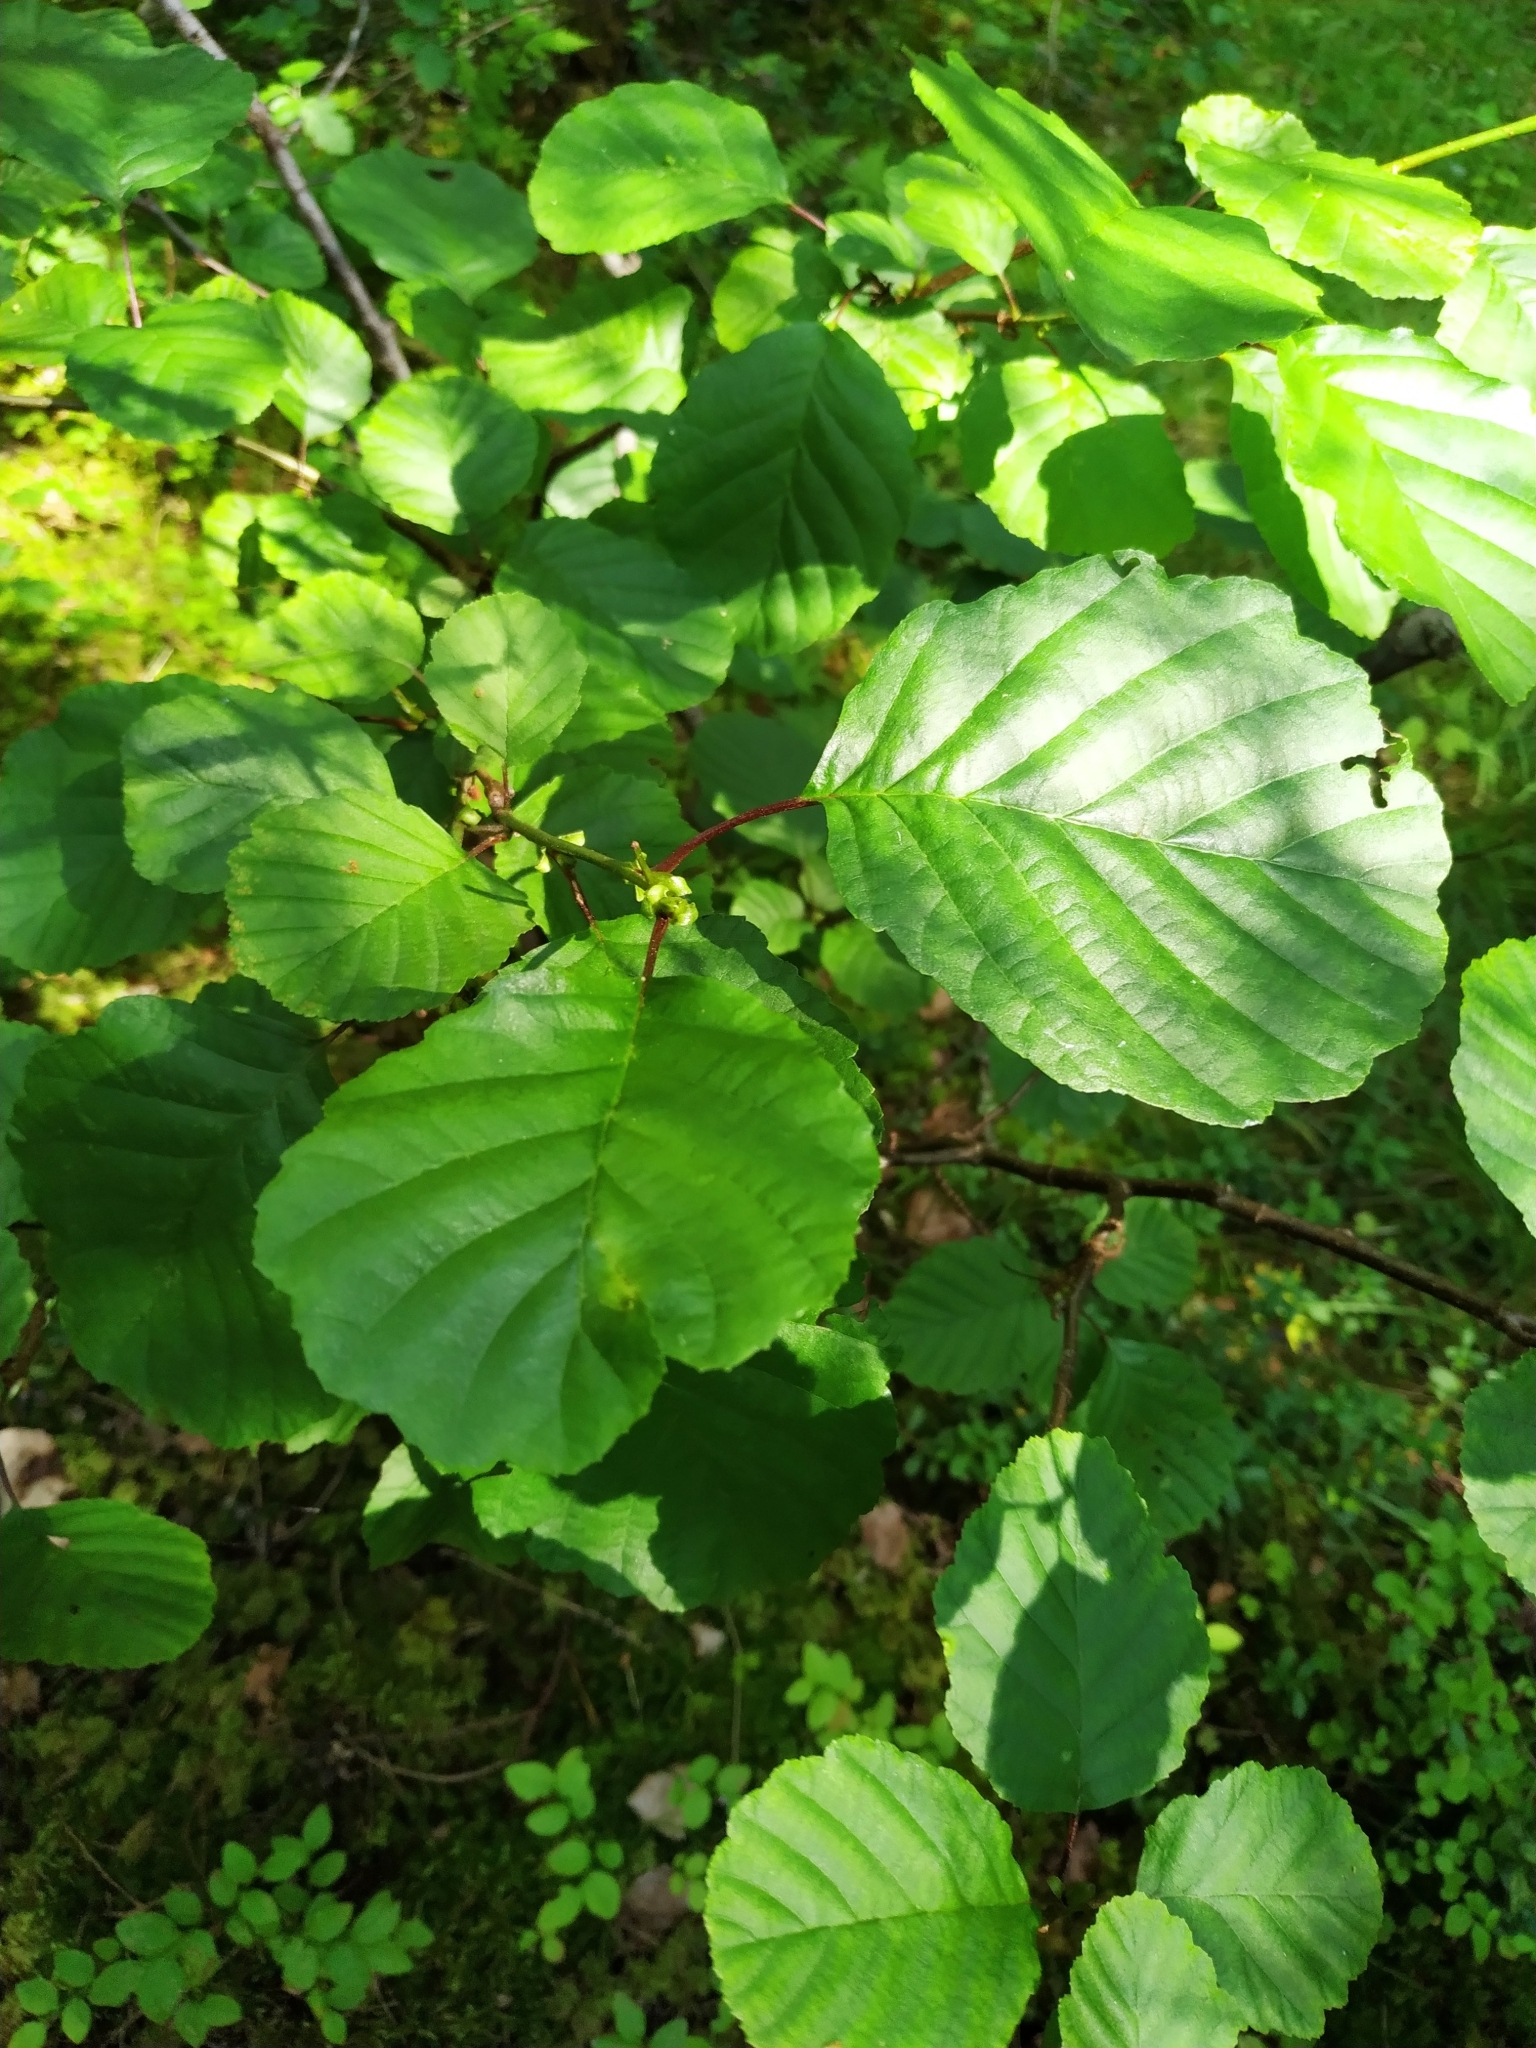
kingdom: Plantae
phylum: Tracheophyta
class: Magnoliopsida
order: Fagales
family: Betulaceae
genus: Alnus
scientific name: Alnus glutinosa
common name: Black alder
